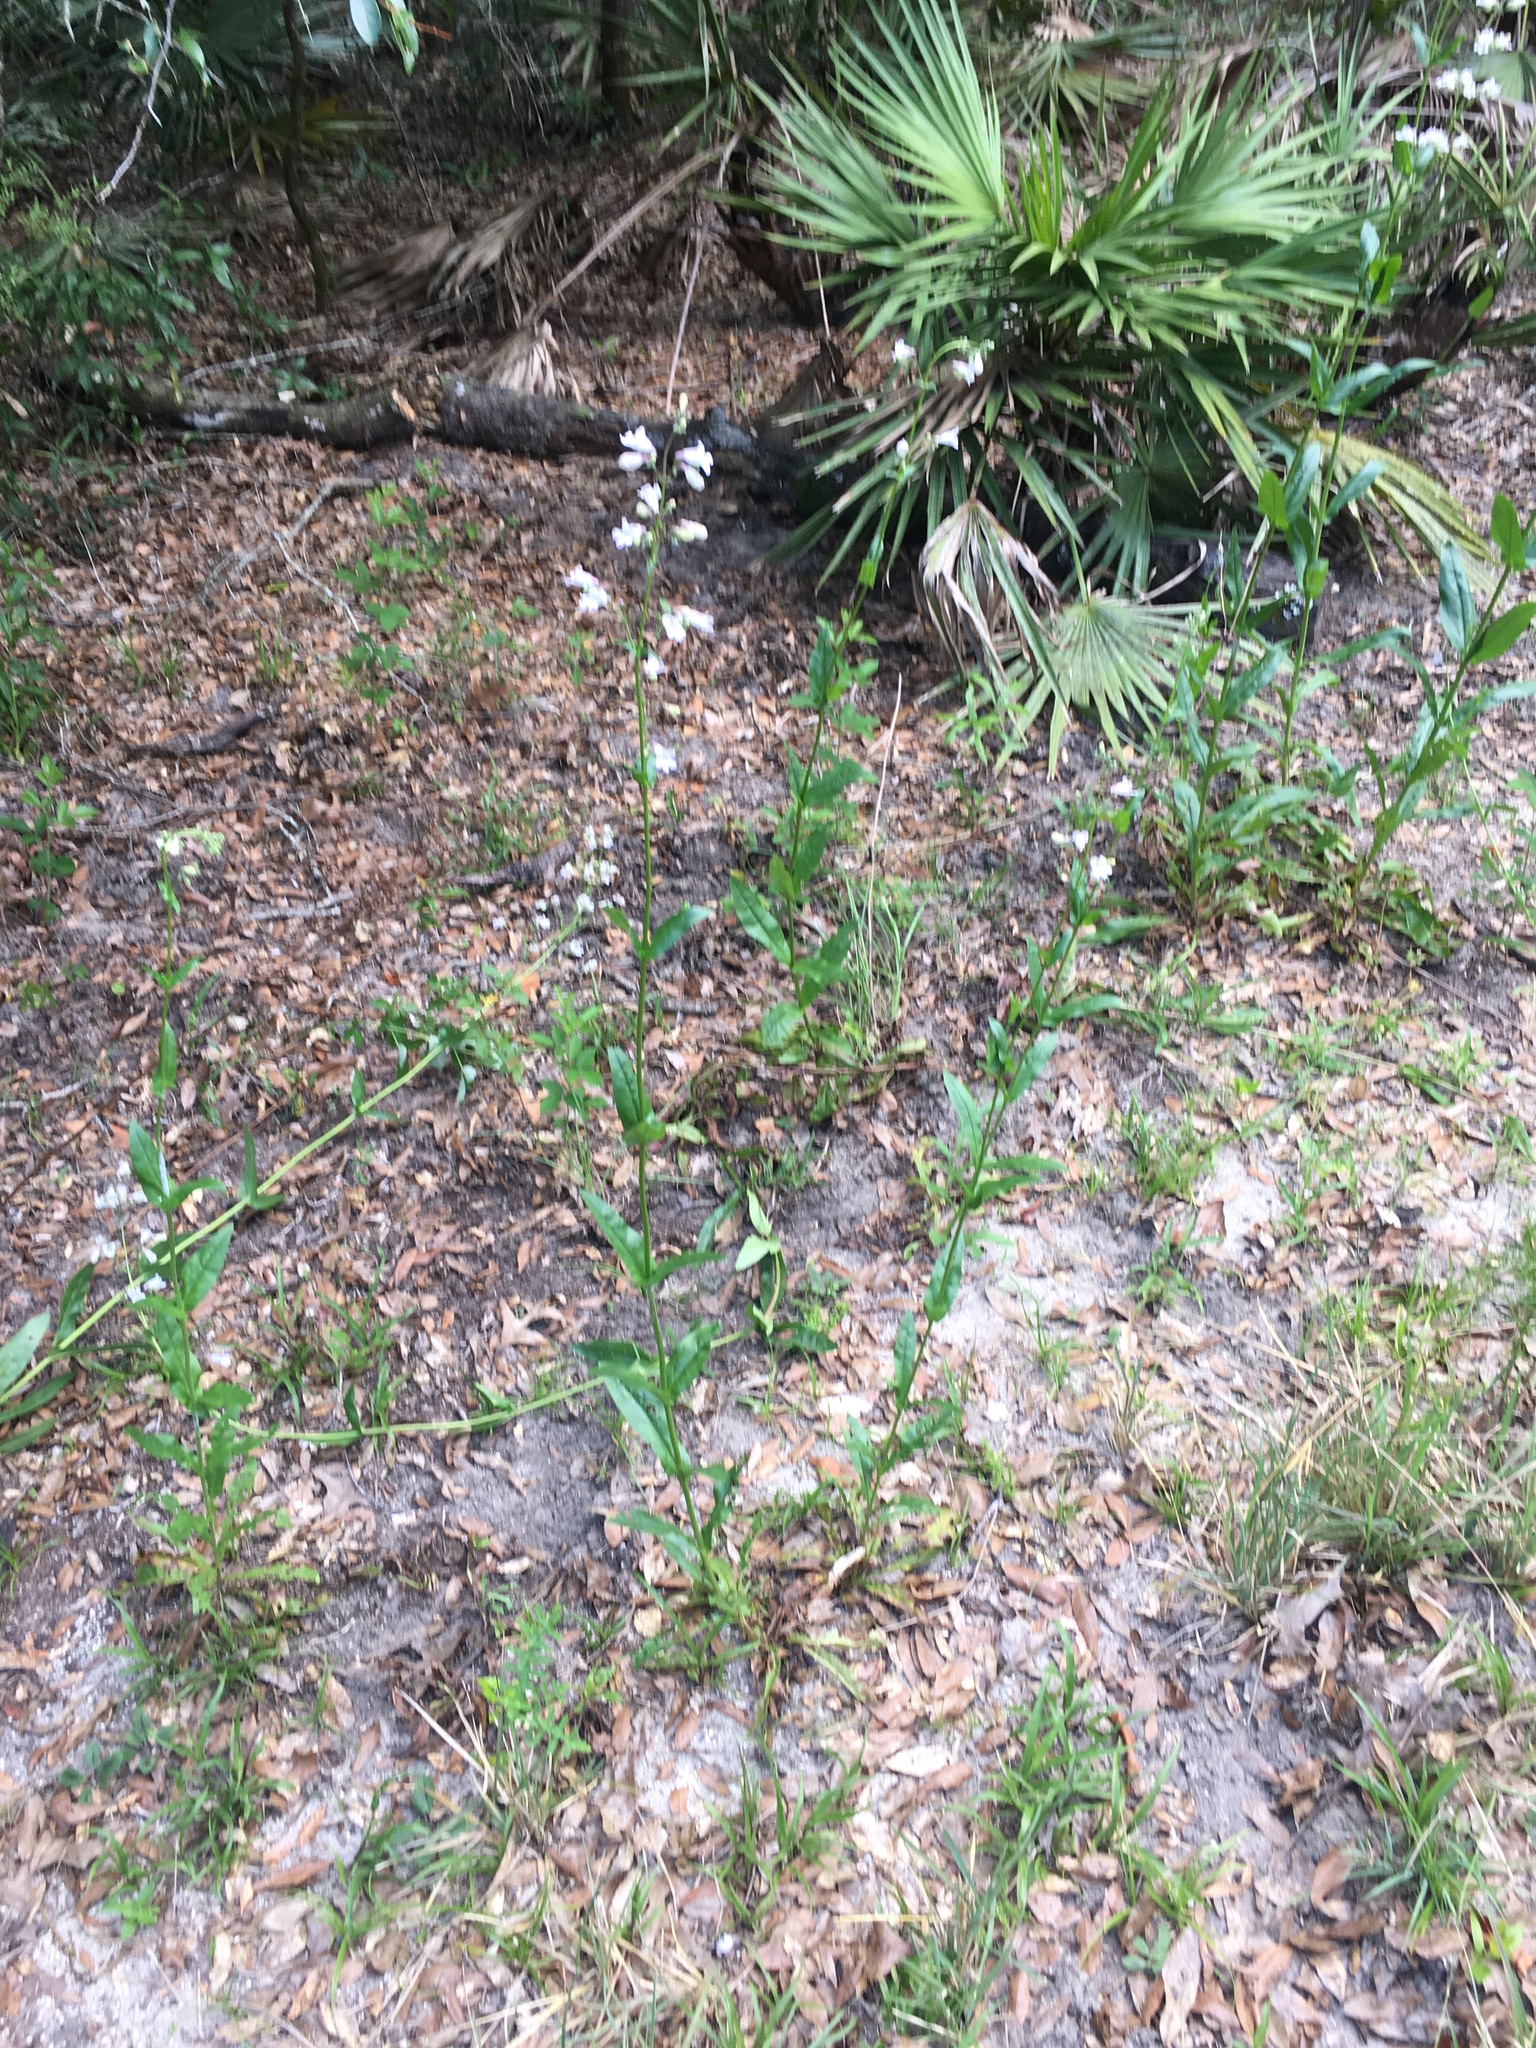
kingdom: Plantae
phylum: Tracheophyta
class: Magnoliopsida
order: Lamiales
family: Plantaginaceae
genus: Penstemon
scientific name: Penstemon multiflorus
